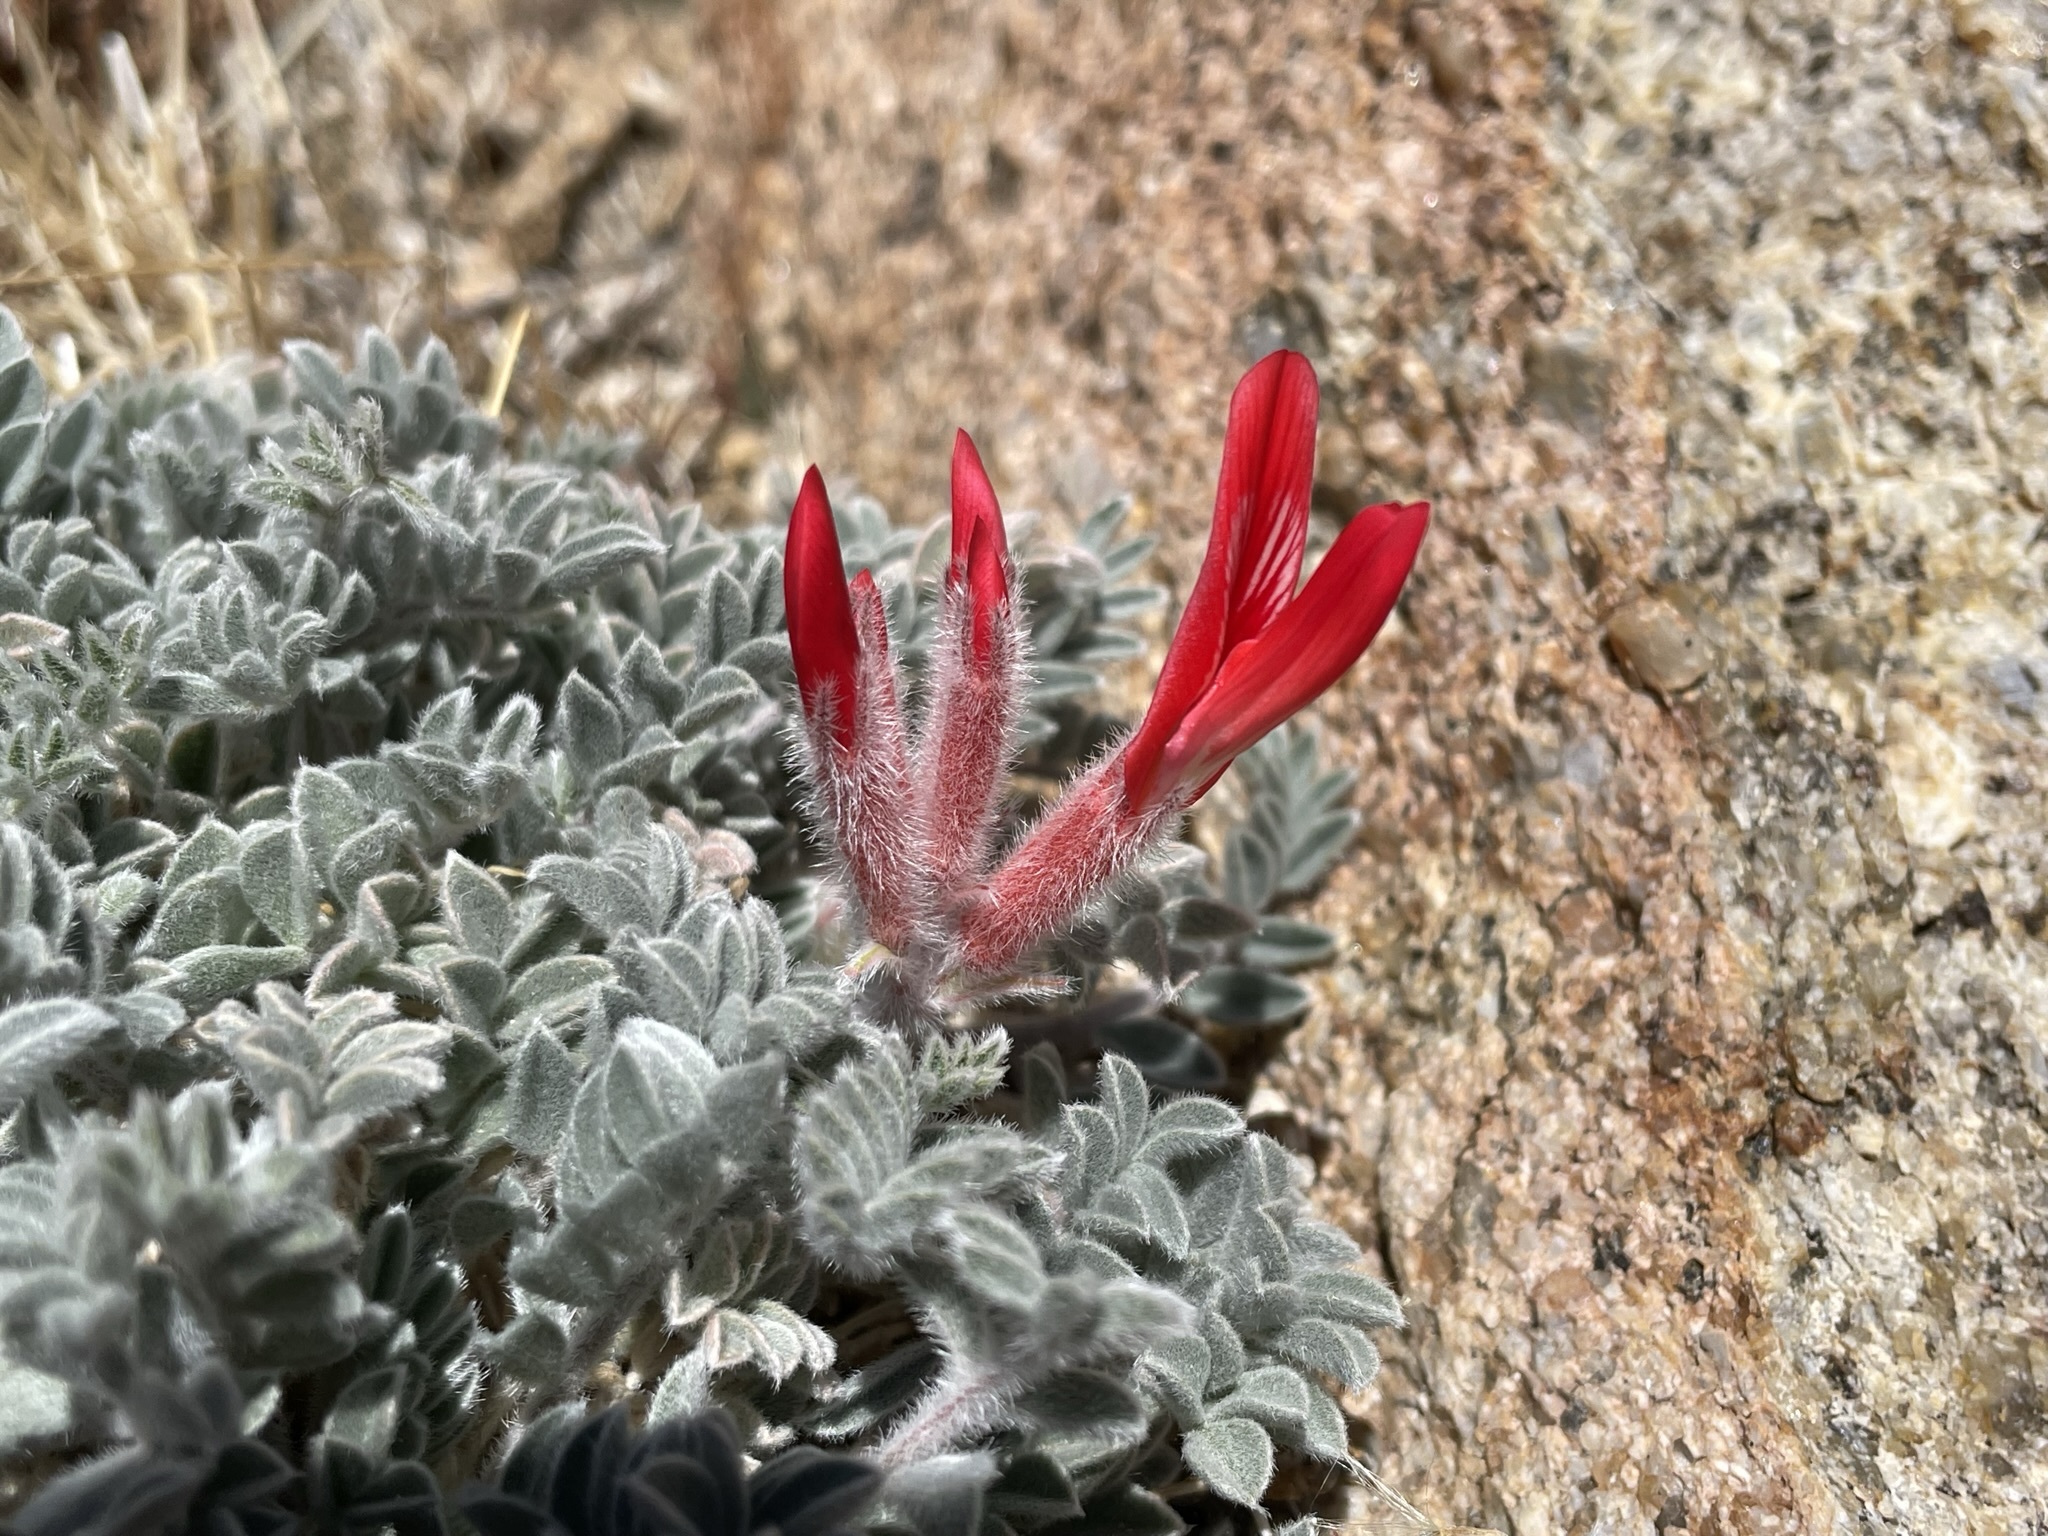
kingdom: Plantae
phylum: Tracheophyta
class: Magnoliopsida
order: Fabales
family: Fabaceae
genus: Astragalus
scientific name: Astragalus coccineus
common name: Scarlet milk-vetch
